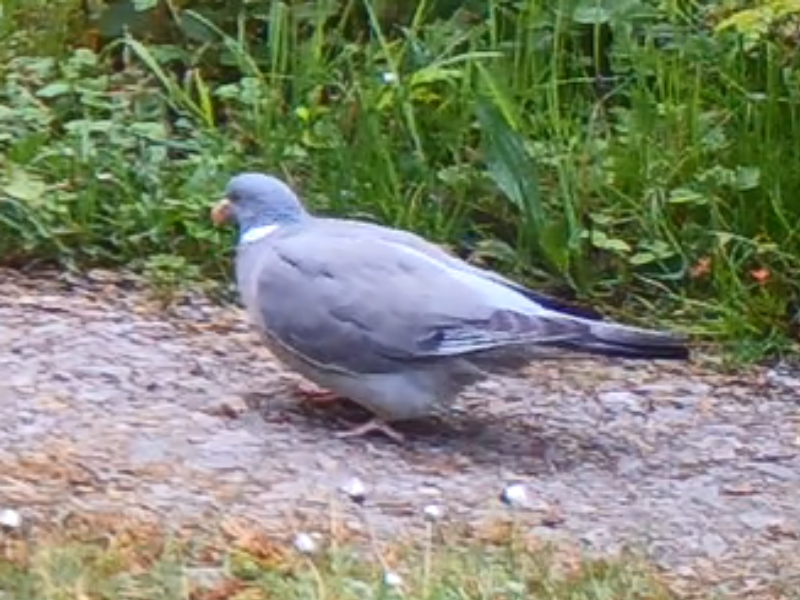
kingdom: Animalia
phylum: Chordata
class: Aves
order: Columbiformes
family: Columbidae
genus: Columba
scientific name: Columba palumbus
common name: Common wood pigeon
